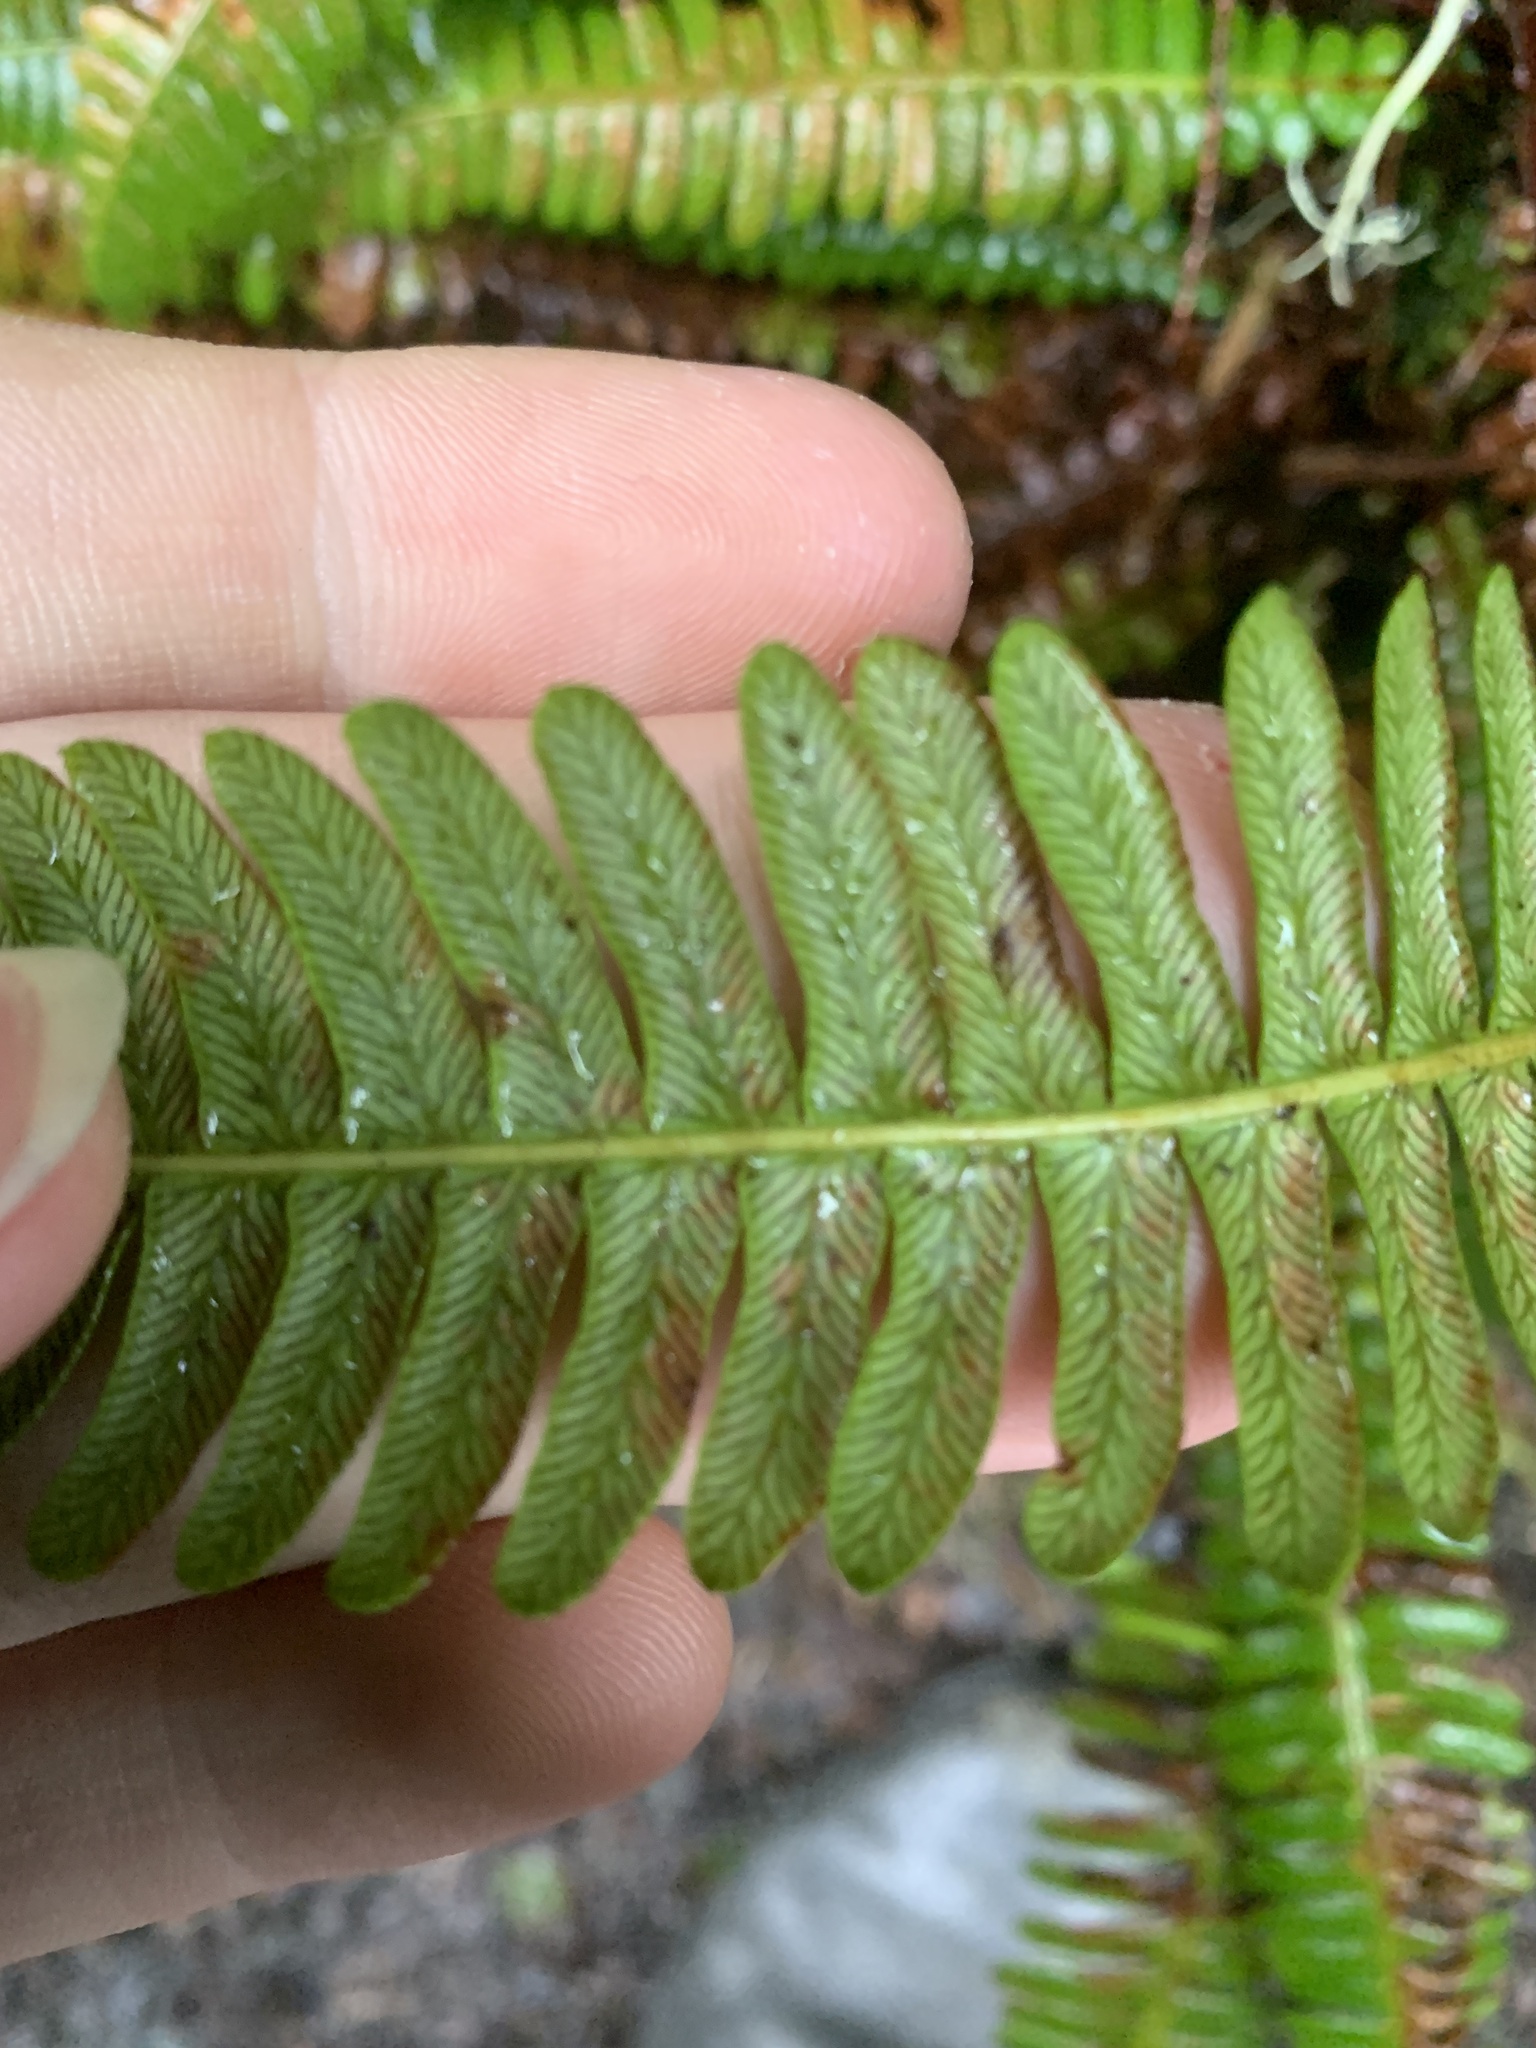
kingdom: Plantae
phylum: Tracheophyta
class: Polypodiopsida
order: Polypodiales
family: Blechnaceae
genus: Struthiopteris
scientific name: Struthiopteris spicant
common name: Deer fern
